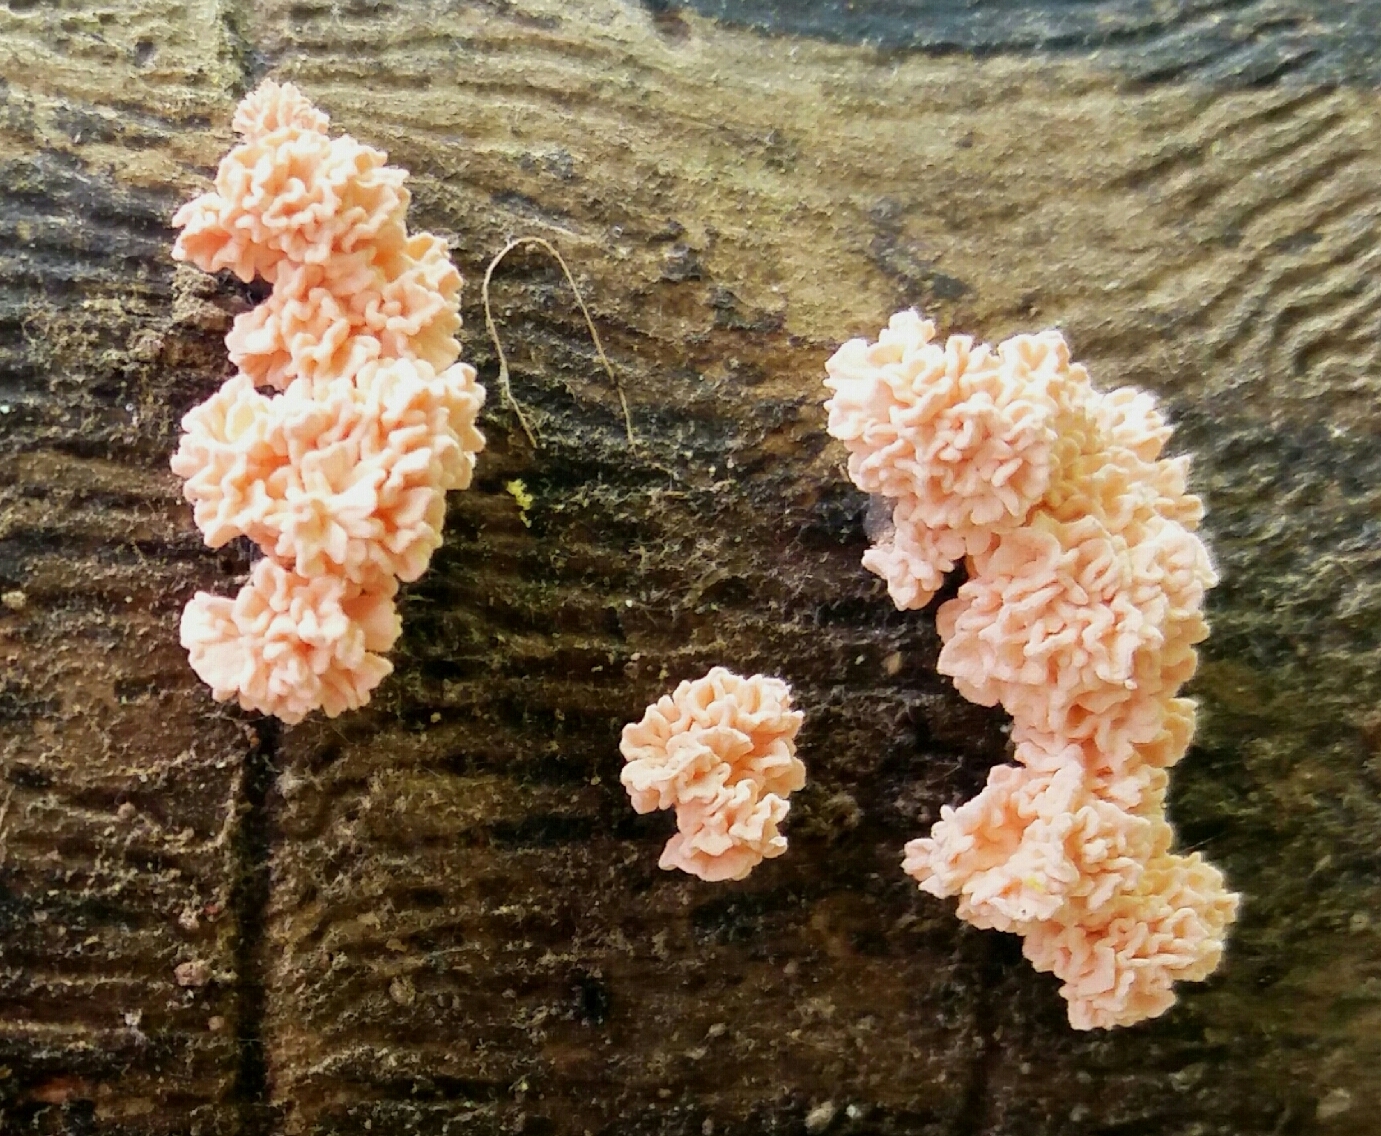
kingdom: Fungi
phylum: Ascomycota
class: Sordariomycetes
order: Xylariales
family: Xylariaceae
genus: Xylaria
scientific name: Xylaria cubensis
